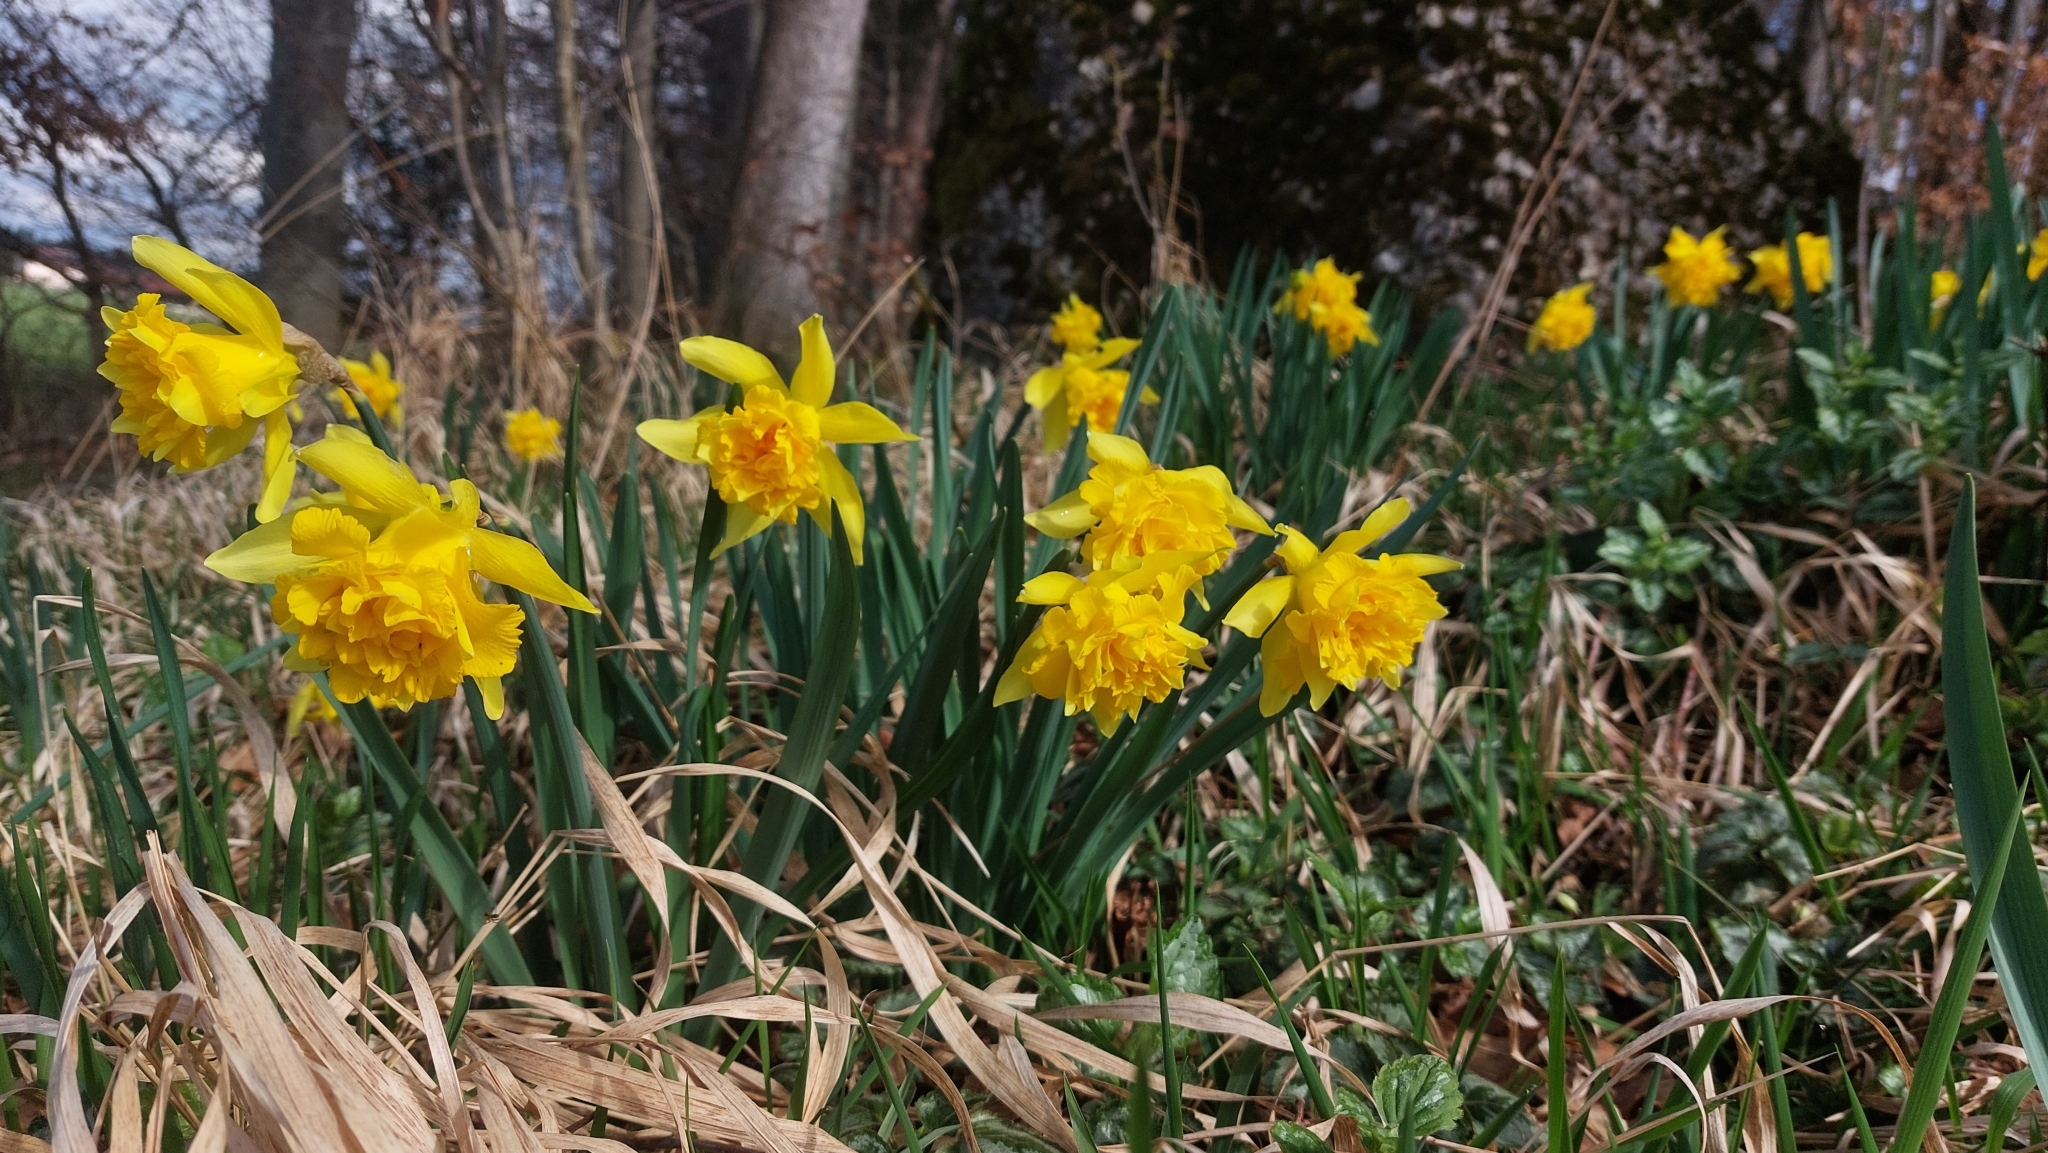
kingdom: Plantae
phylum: Tracheophyta
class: Liliopsida
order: Asparagales
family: Amaryllidaceae
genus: Narcissus
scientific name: Narcissus pseudonarcissus
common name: Daffodil
